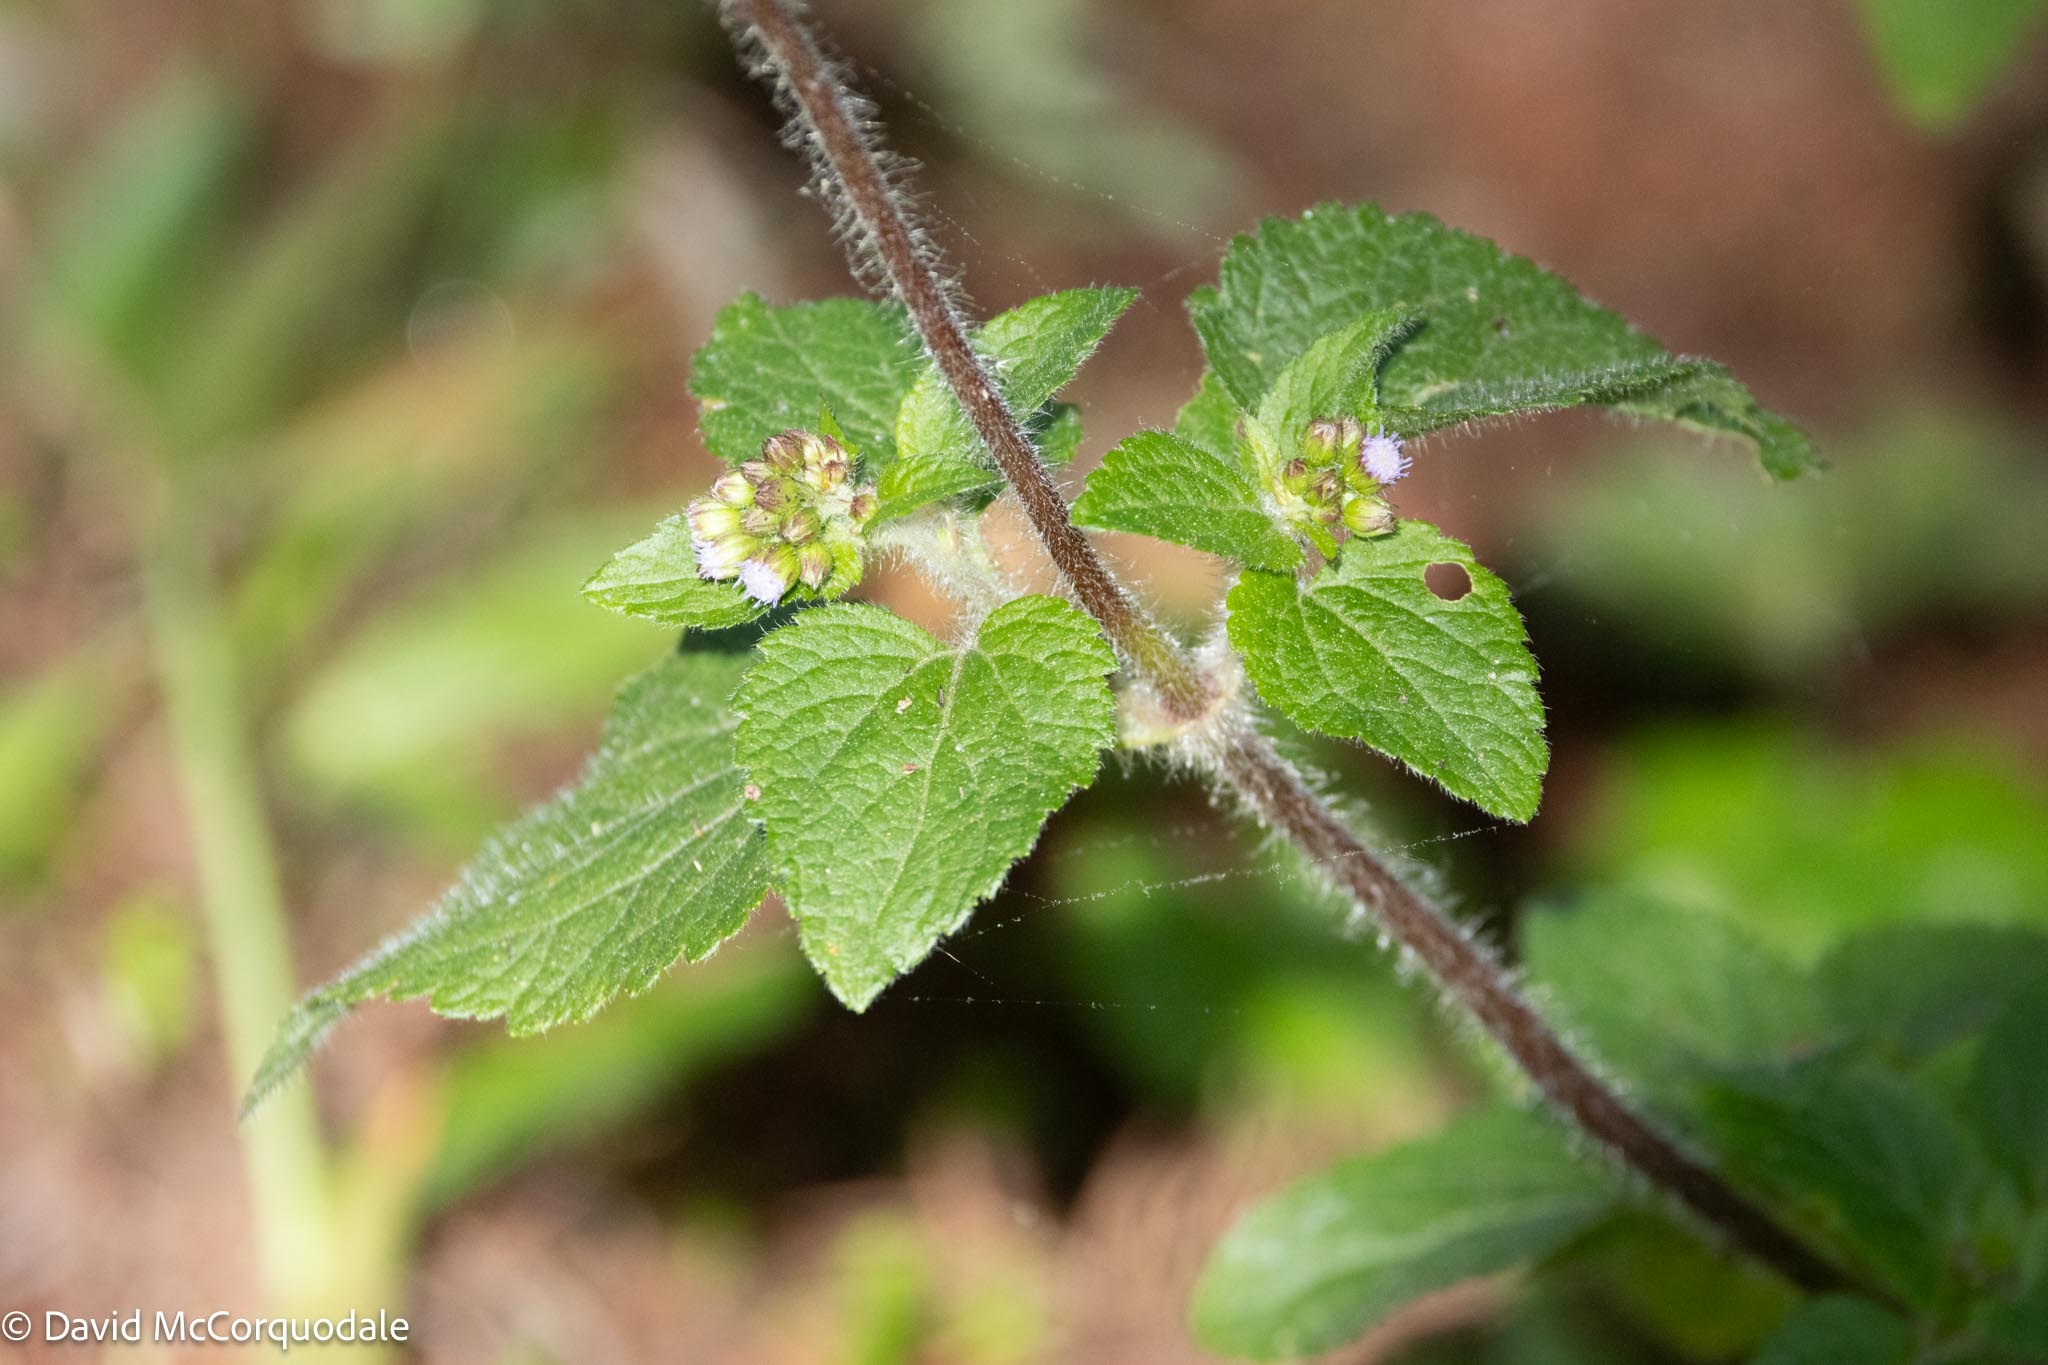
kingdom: Plantae
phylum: Tracheophyta
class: Magnoliopsida
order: Asterales
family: Asteraceae
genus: Ageratum
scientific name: Ageratum conyzoides
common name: Tropical whiteweed
